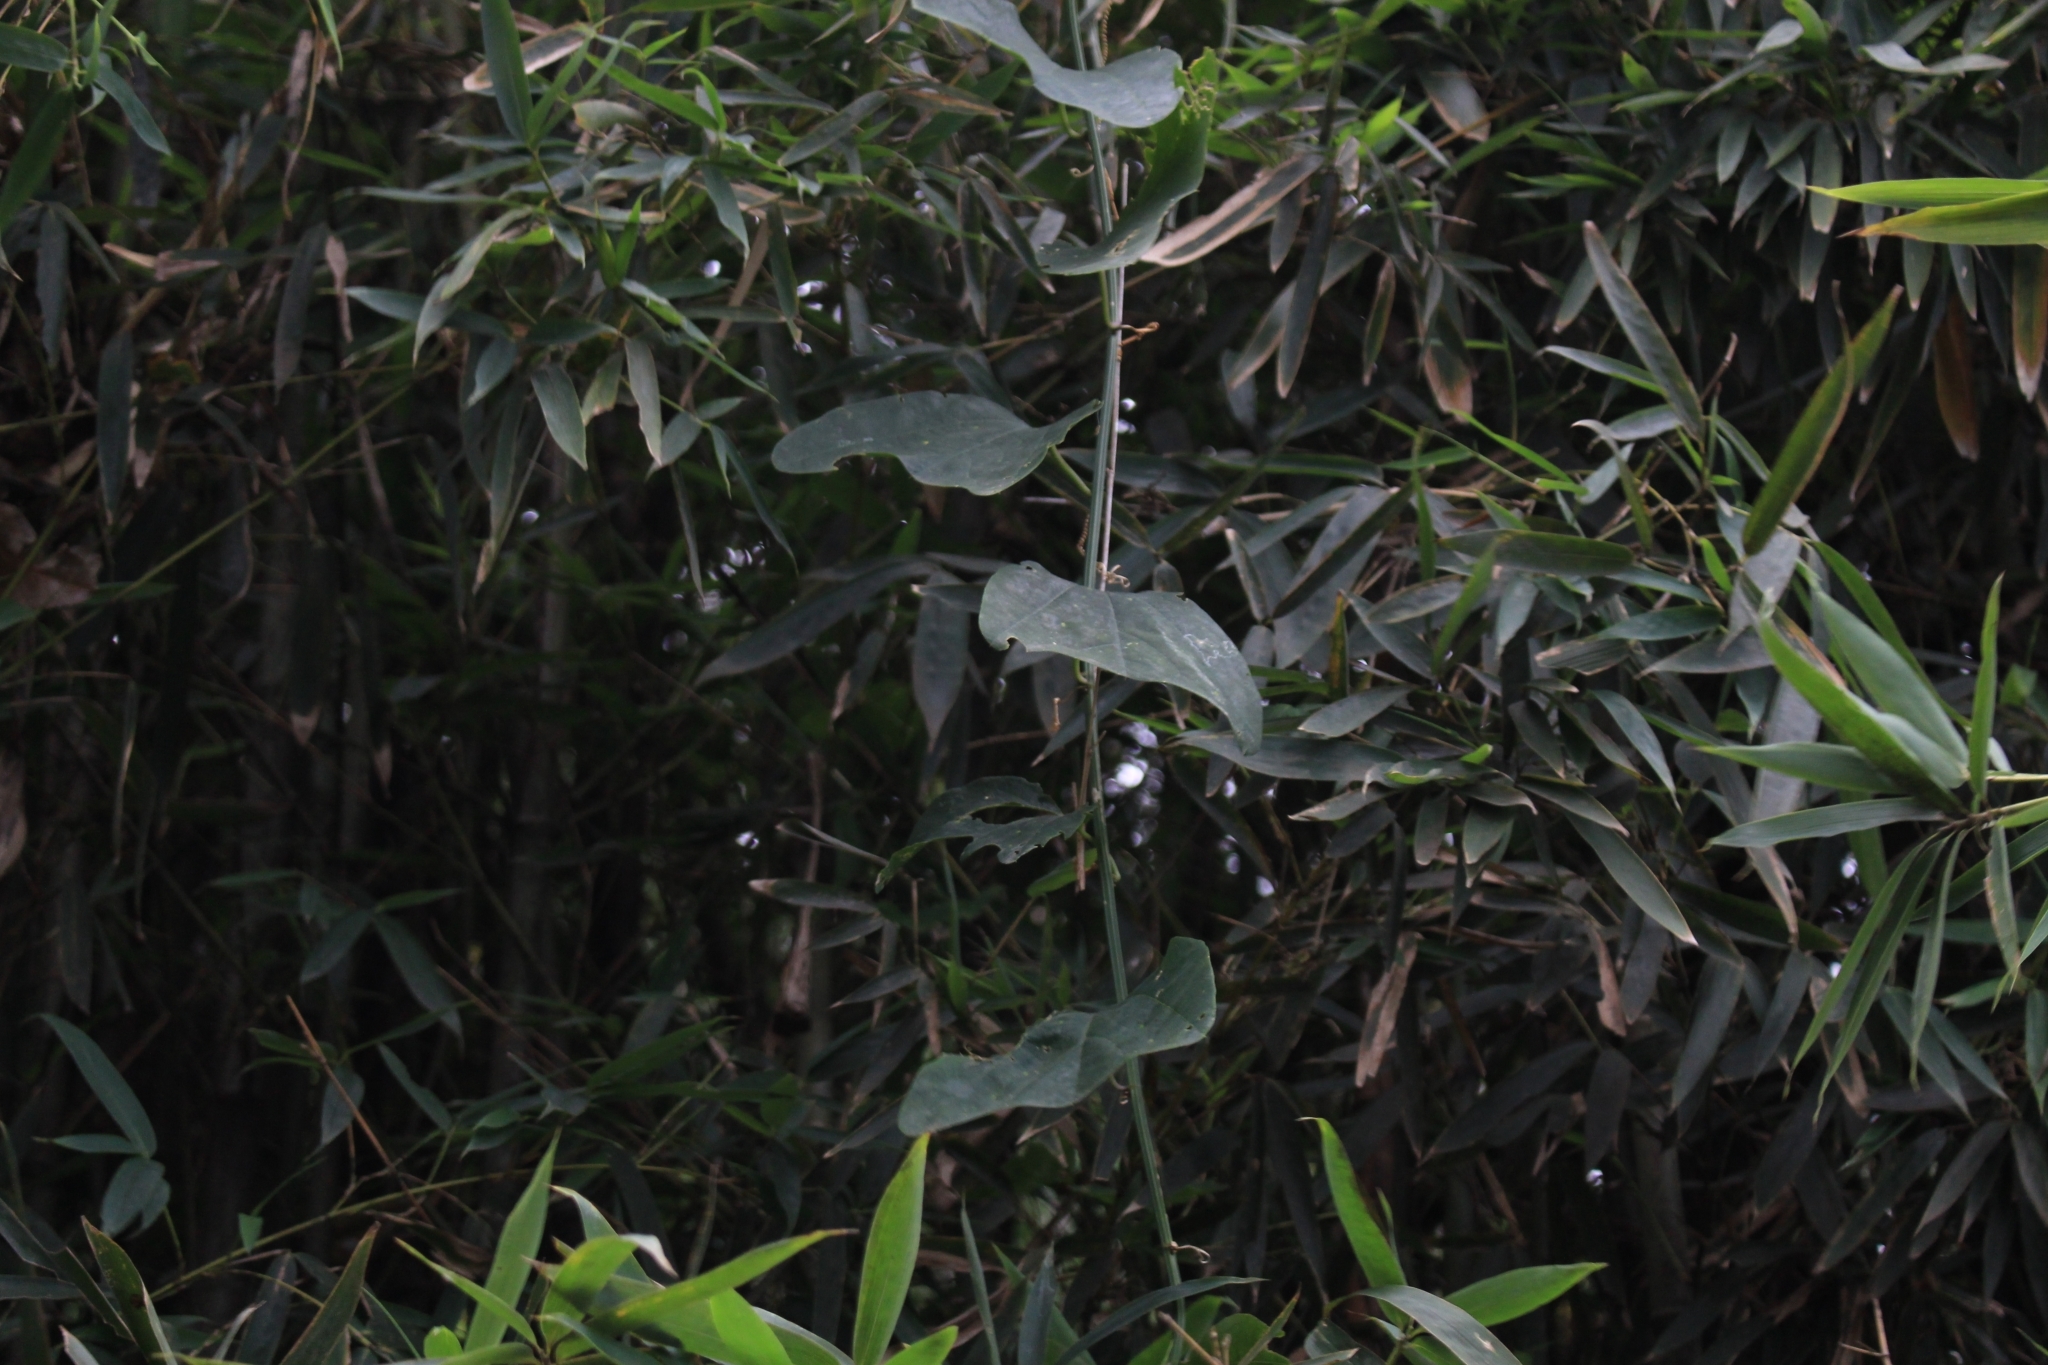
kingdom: Plantae
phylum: Tracheophyta
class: Magnoliopsida
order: Malpighiales
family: Passifloraceae
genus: Passiflora
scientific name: Passiflora biflora
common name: Twoflower passionflower
